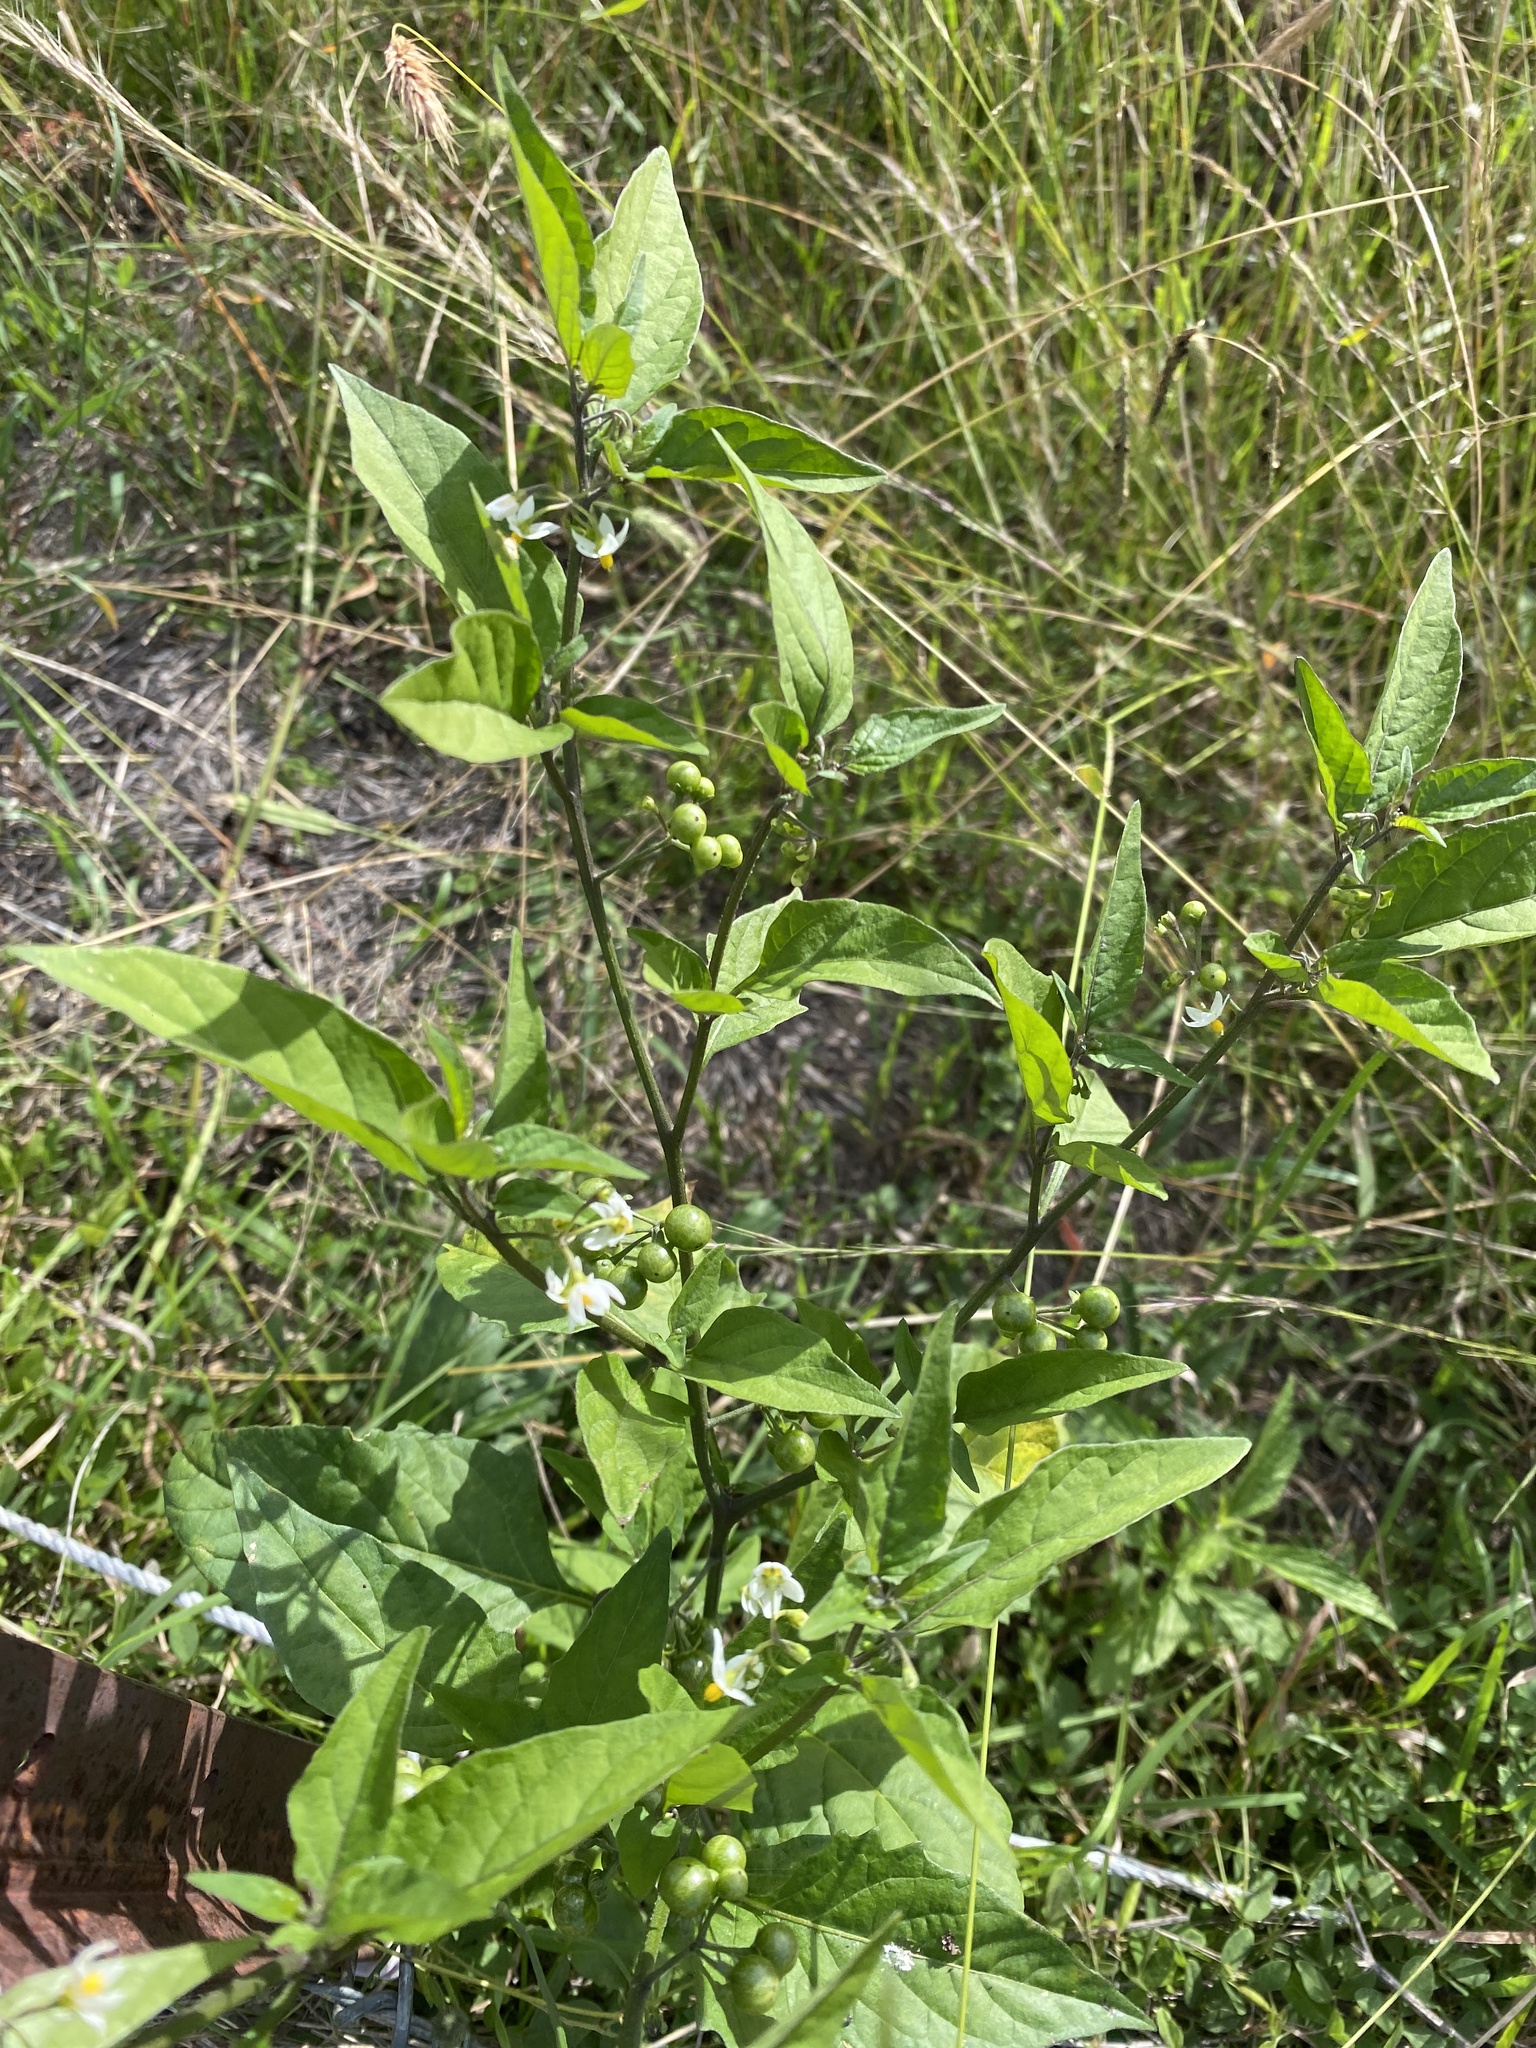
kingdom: Plantae
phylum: Tracheophyta
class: Magnoliopsida
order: Solanales
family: Solanaceae
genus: Solanum
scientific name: Solanum americanum
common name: American black nightshade
